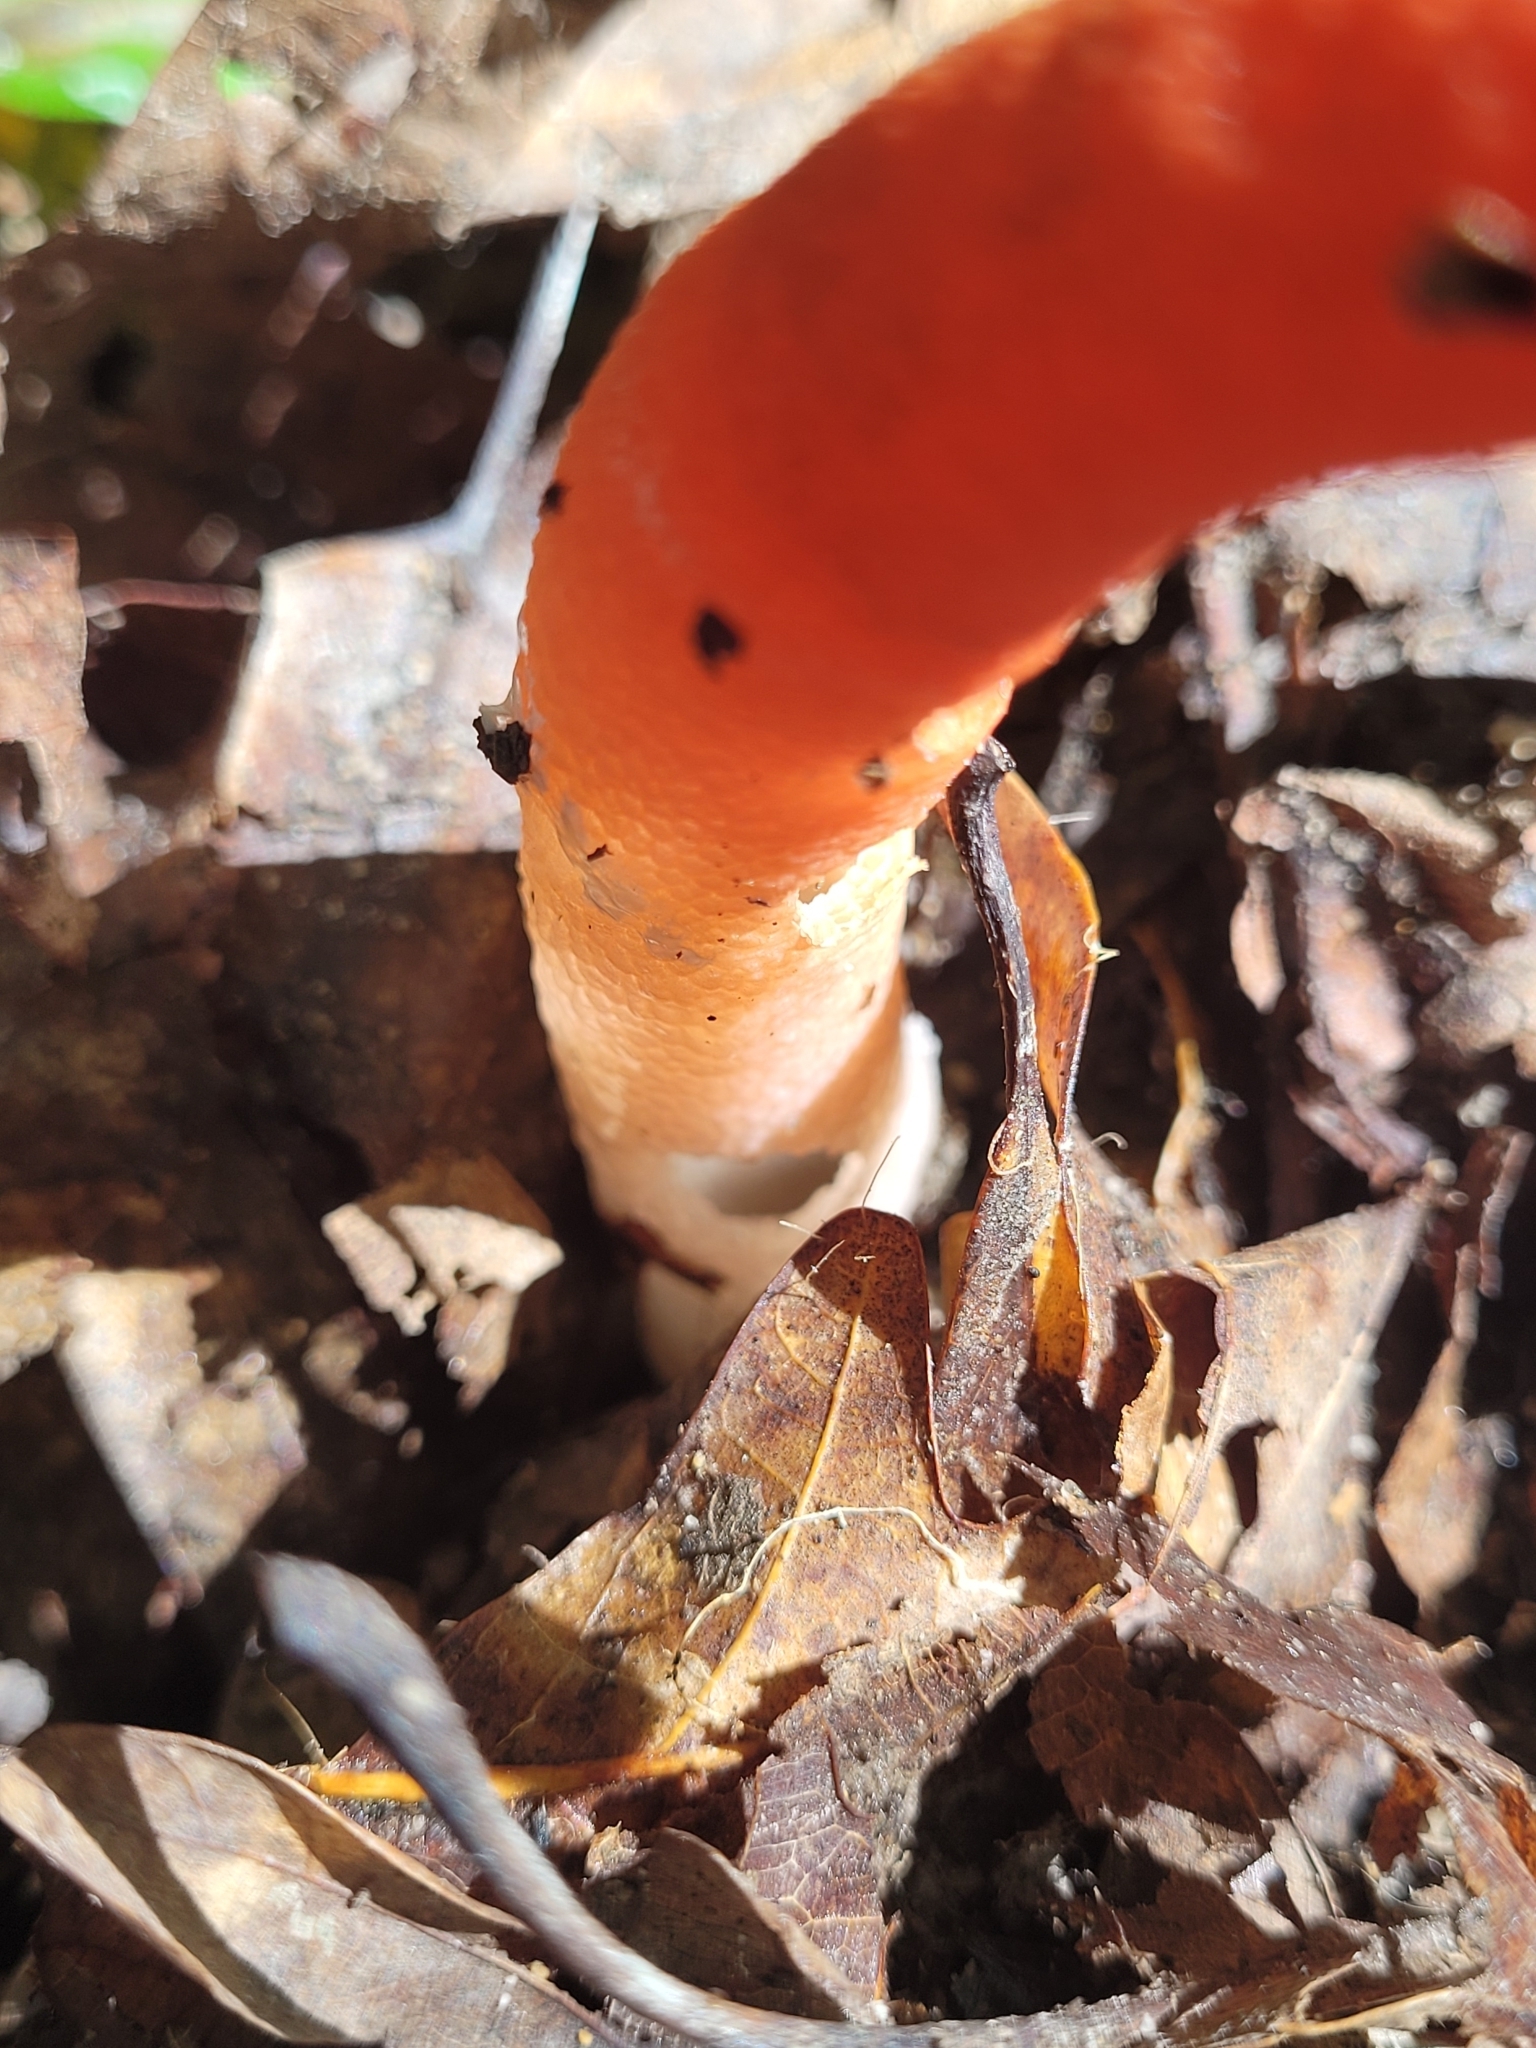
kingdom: Fungi
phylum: Basidiomycota
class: Agaricomycetes
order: Phallales
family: Phallaceae
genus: Mutinus
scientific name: Mutinus elegans
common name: Devil's dipstick
